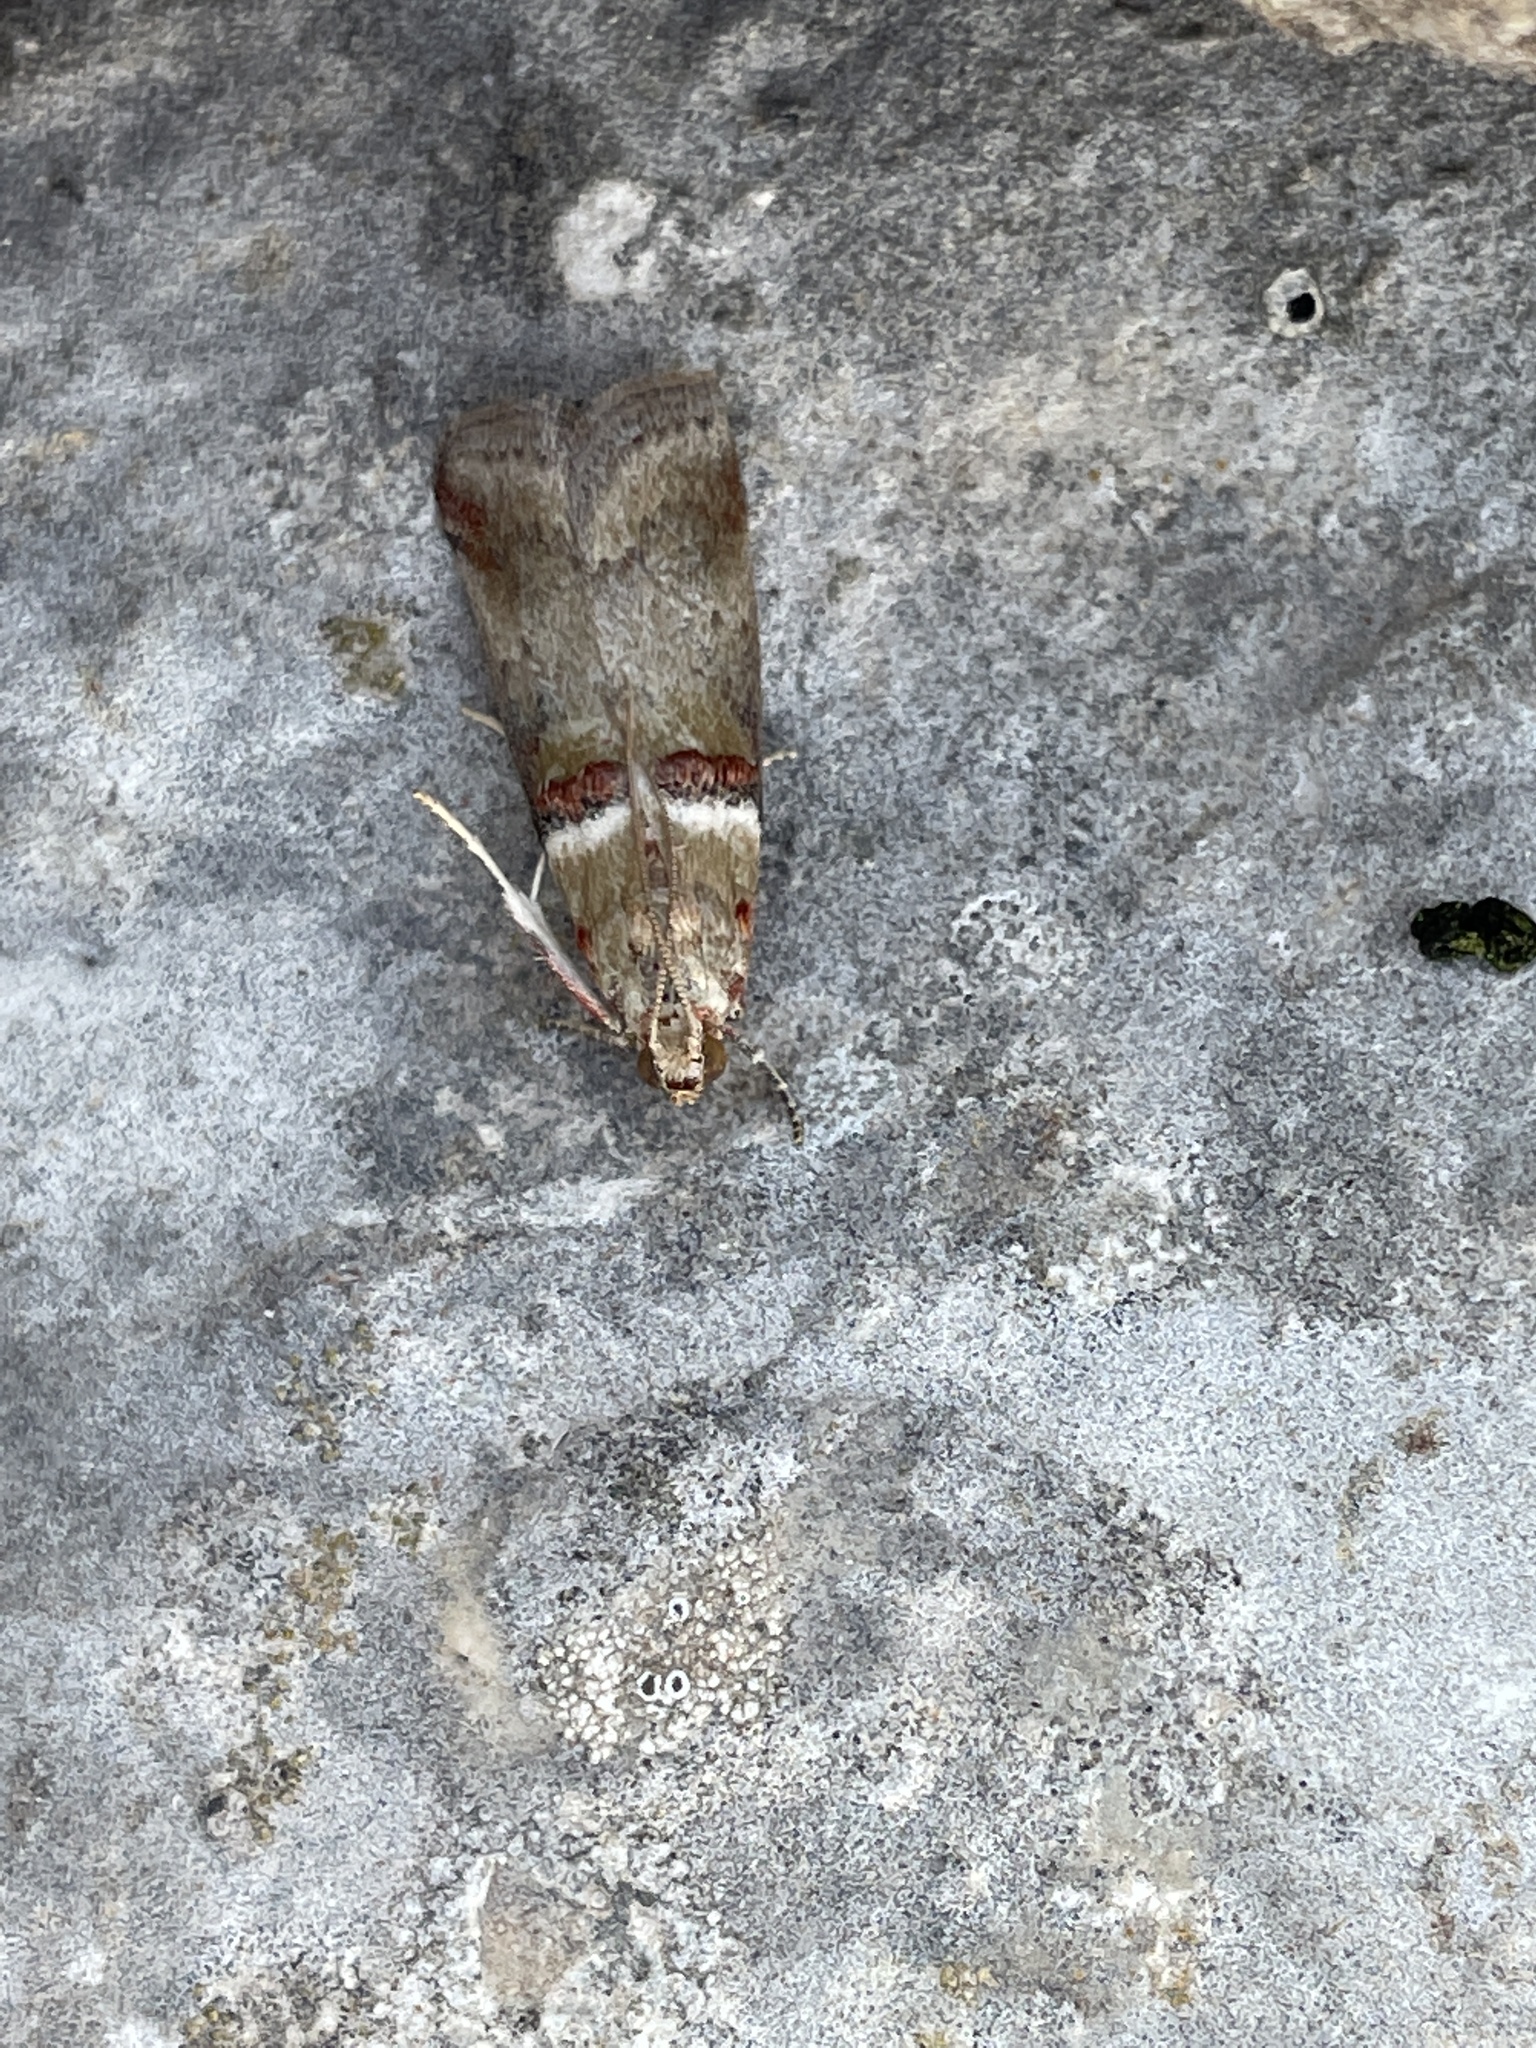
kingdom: Animalia
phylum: Arthropoda
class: Insecta
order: Lepidoptera
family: Pyralidae
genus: Acrobasis
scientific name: Acrobasis tumidana
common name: Scarce oak knot-horn
